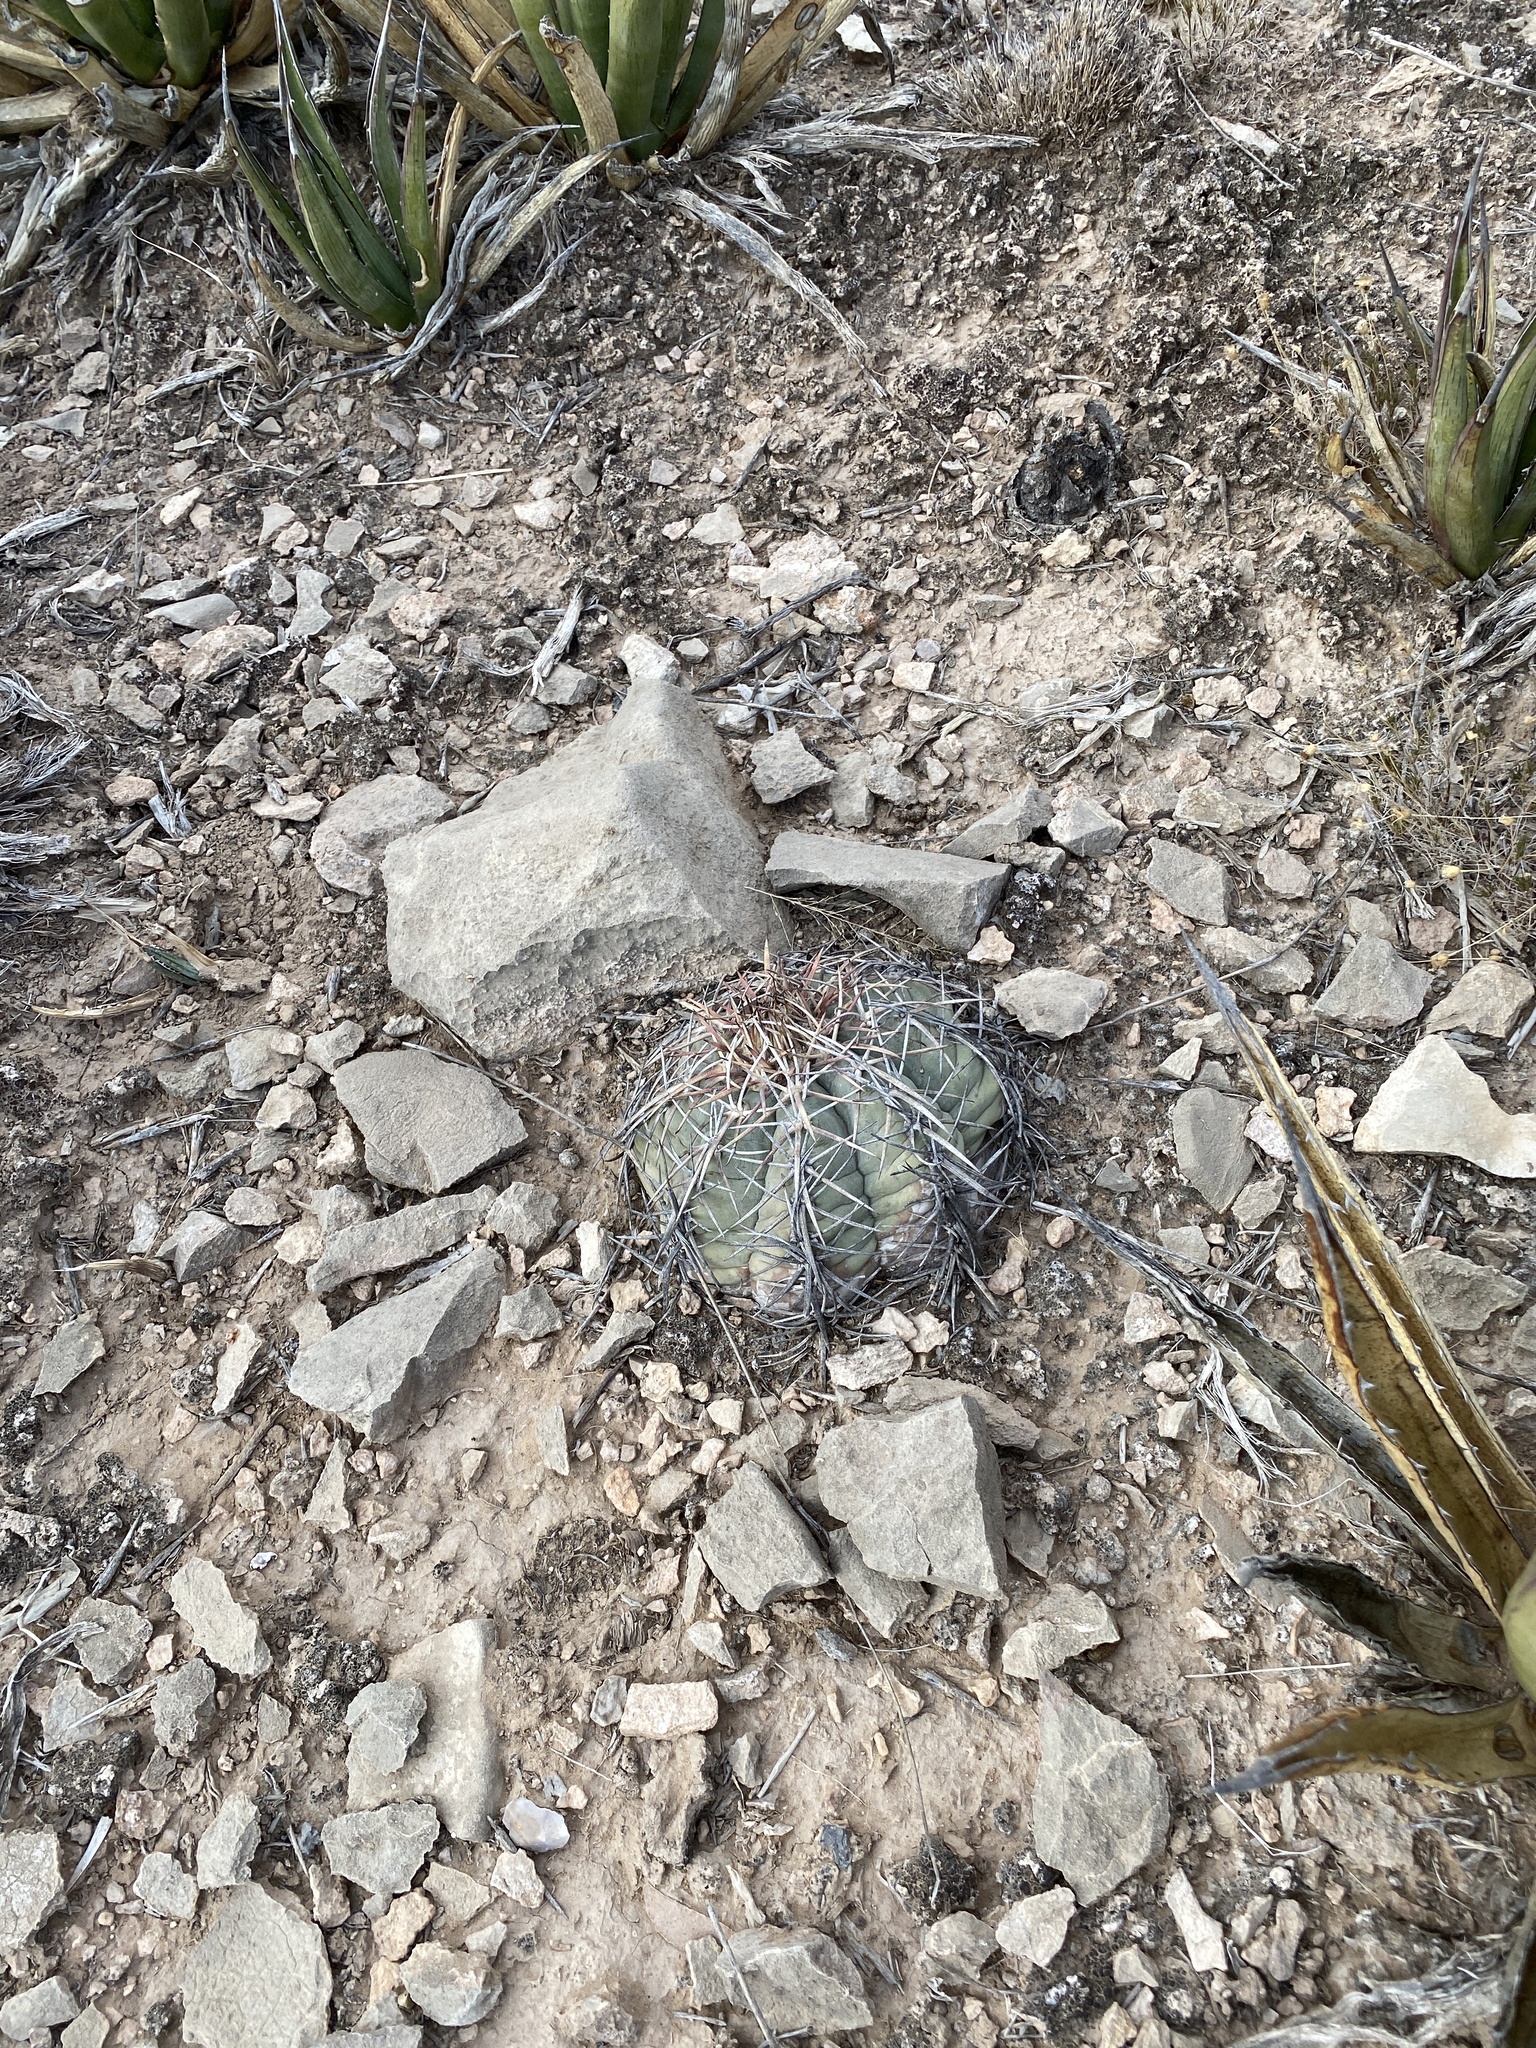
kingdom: Plantae
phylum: Tracheophyta
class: Magnoliopsida
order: Caryophyllales
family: Cactaceae
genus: Echinocactus
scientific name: Echinocactus horizonthalonius
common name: Devilshead
